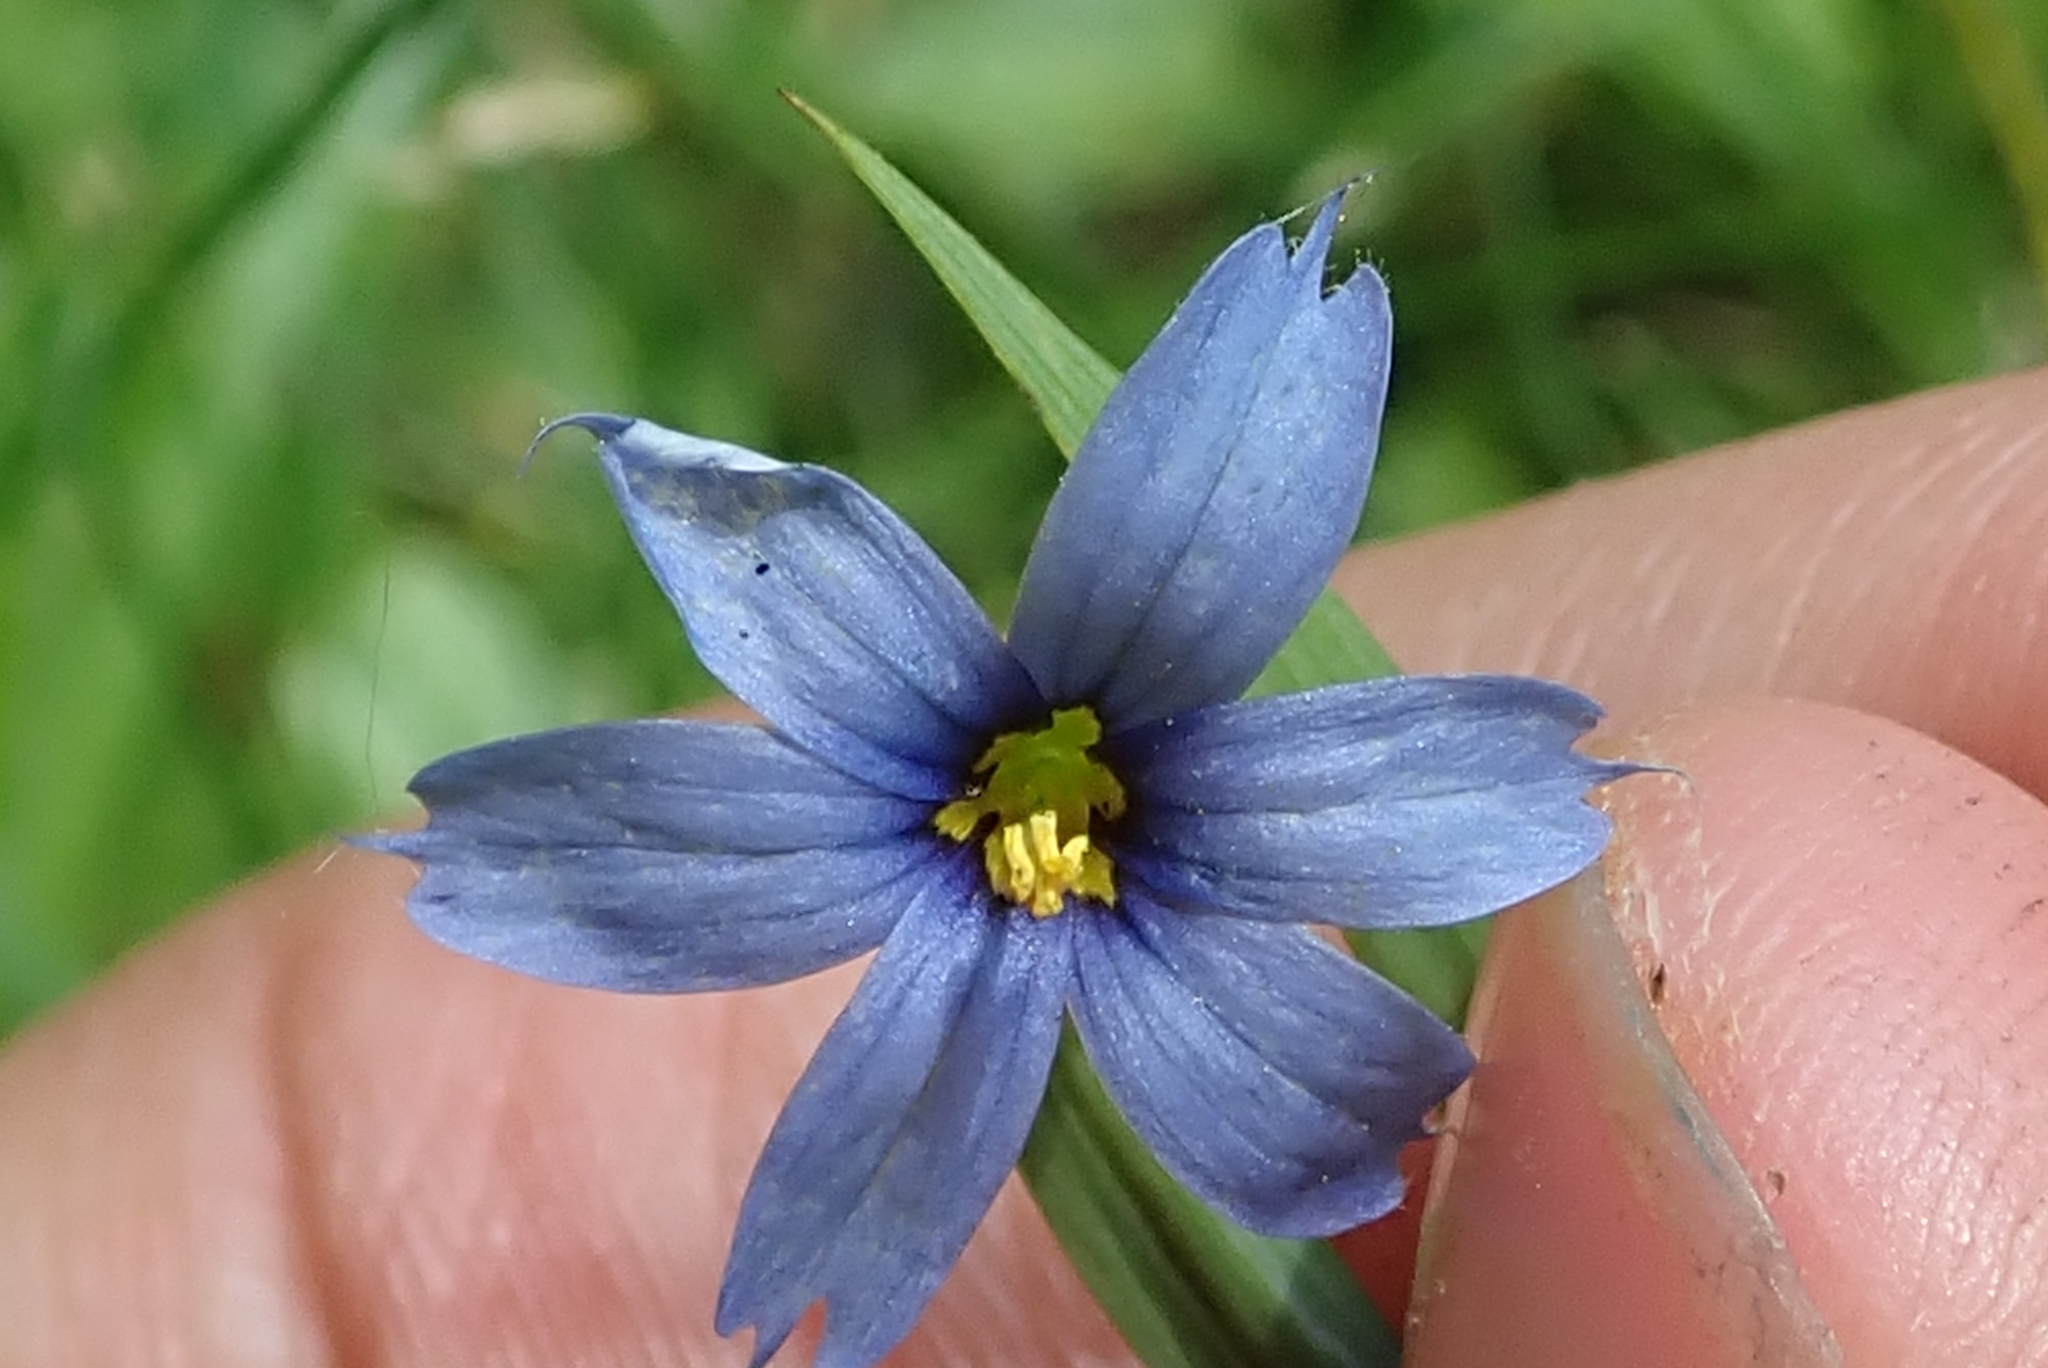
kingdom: Plantae
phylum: Tracheophyta
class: Liliopsida
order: Asparagales
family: Iridaceae
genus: Sisyrinchium
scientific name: Sisyrinchium angustifolium
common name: Narrow-leaf blue-eyed-grass
